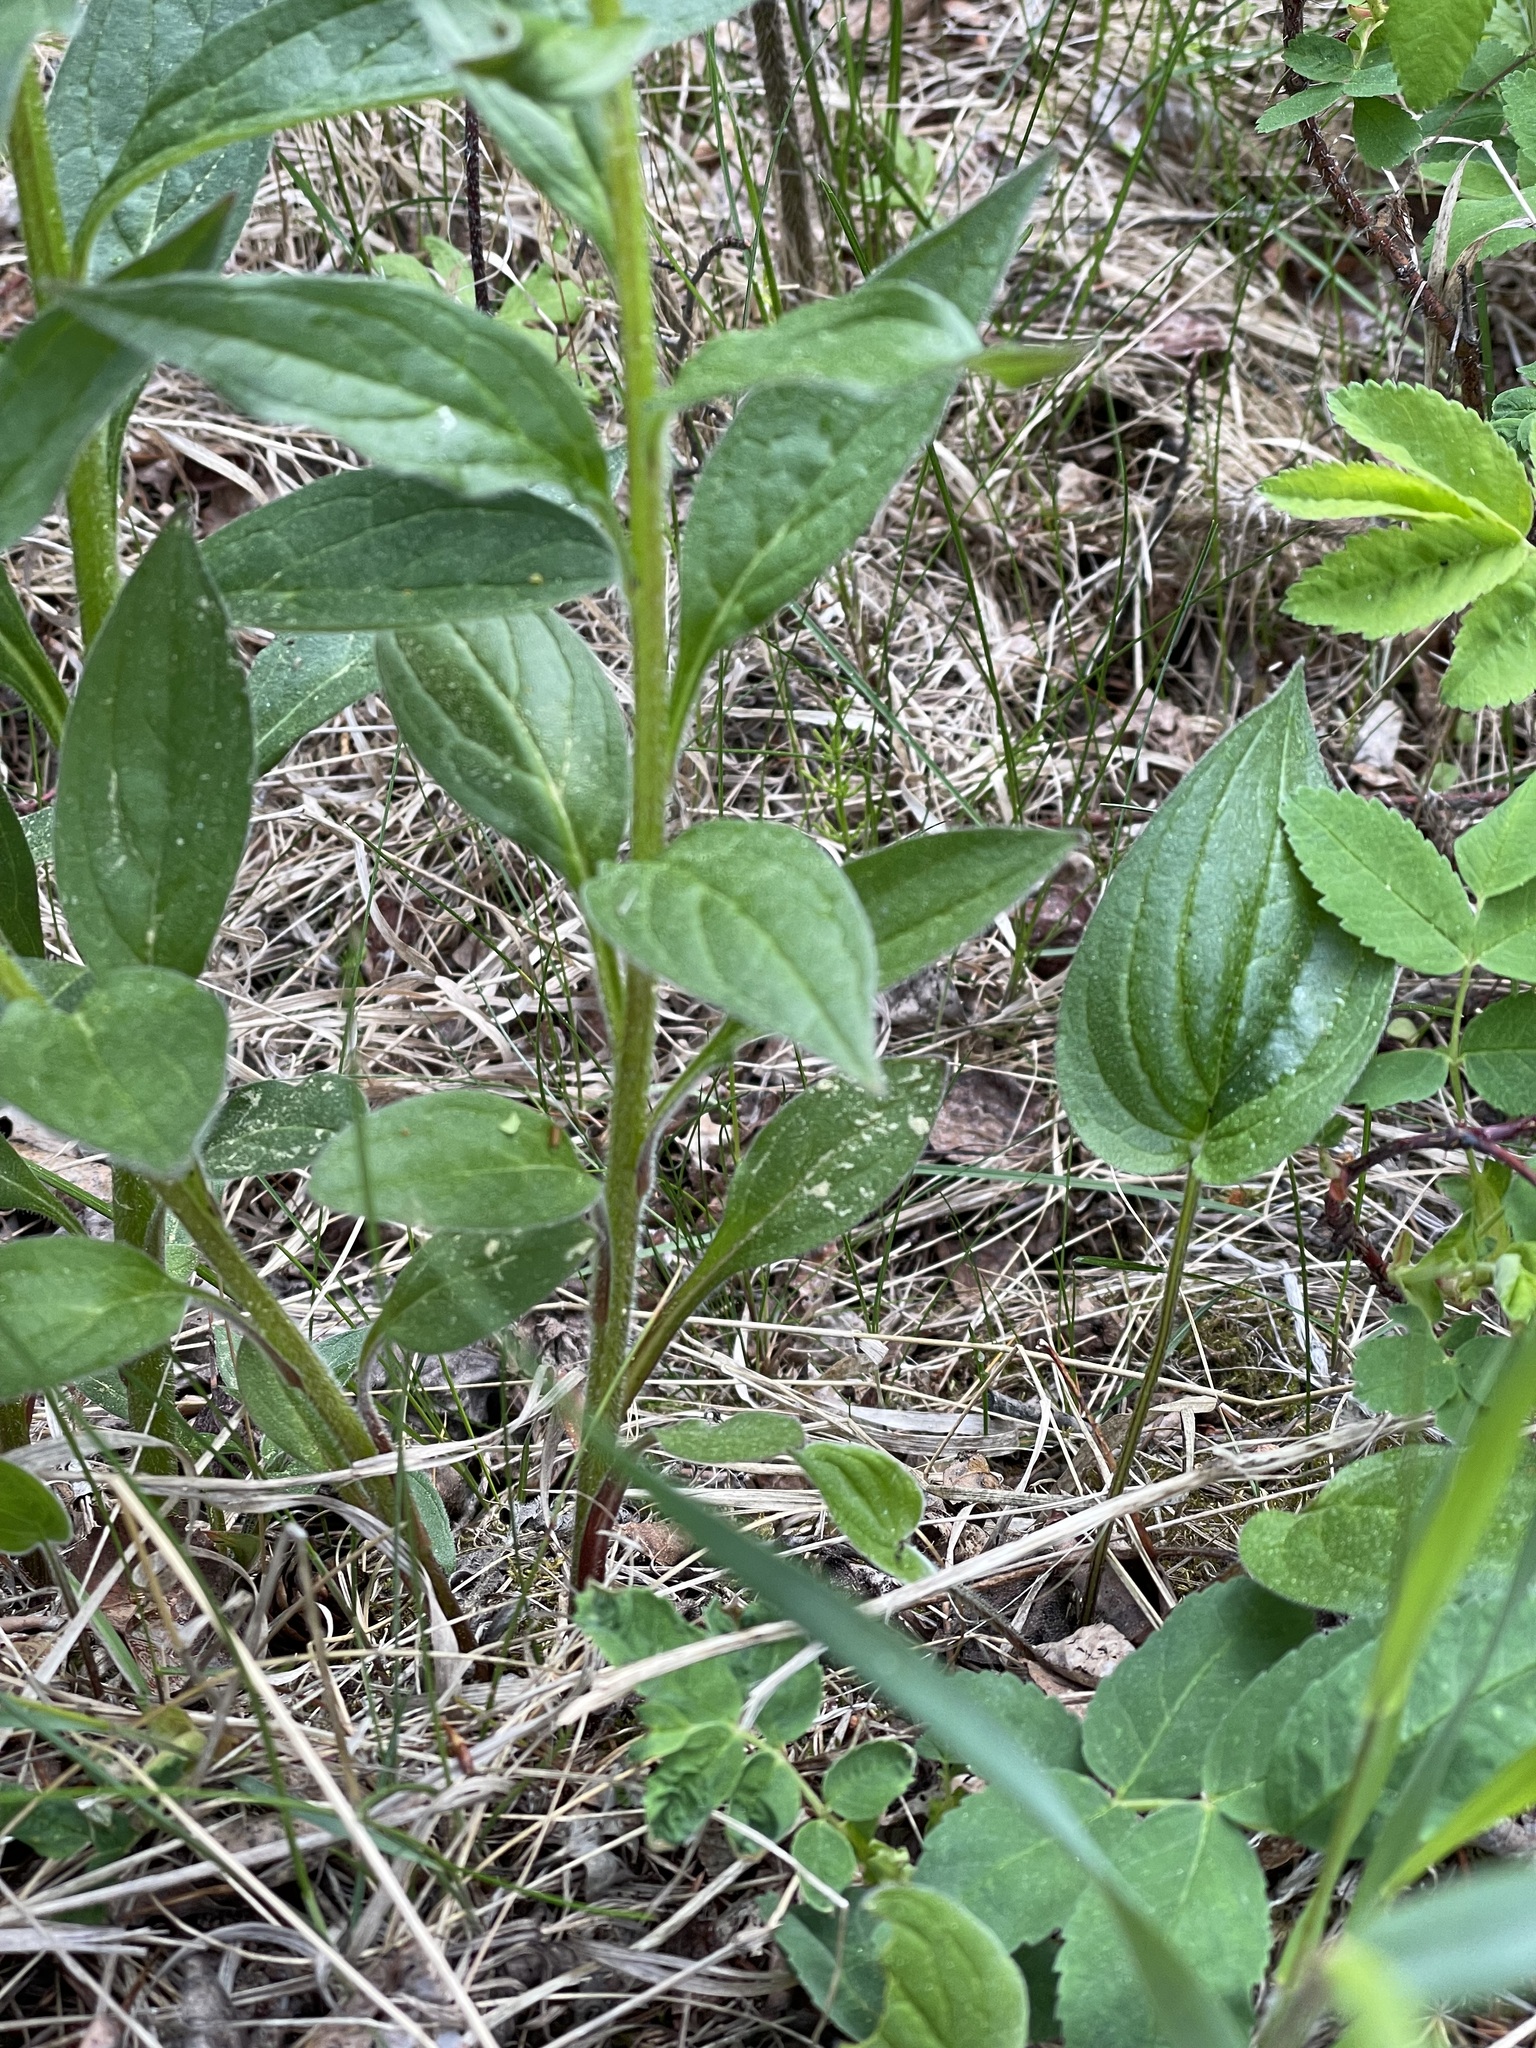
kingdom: Plantae
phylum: Tracheophyta
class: Magnoliopsida
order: Boraginales
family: Boraginaceae
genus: Mertensia
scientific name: Mertensia paniculata
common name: Panicled bluebells
